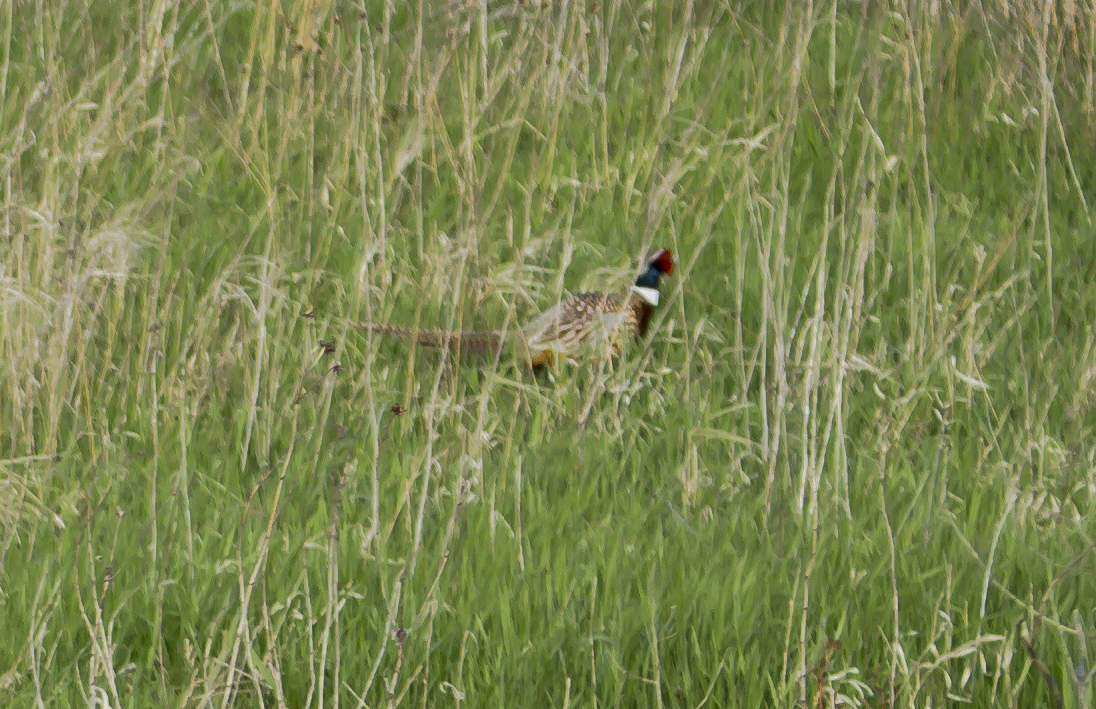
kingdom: Animalia
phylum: Chordata
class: Aves
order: Galliformes
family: Phasianidae
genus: Phasianus
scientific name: Phasianus colchicus
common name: Common pheasant
